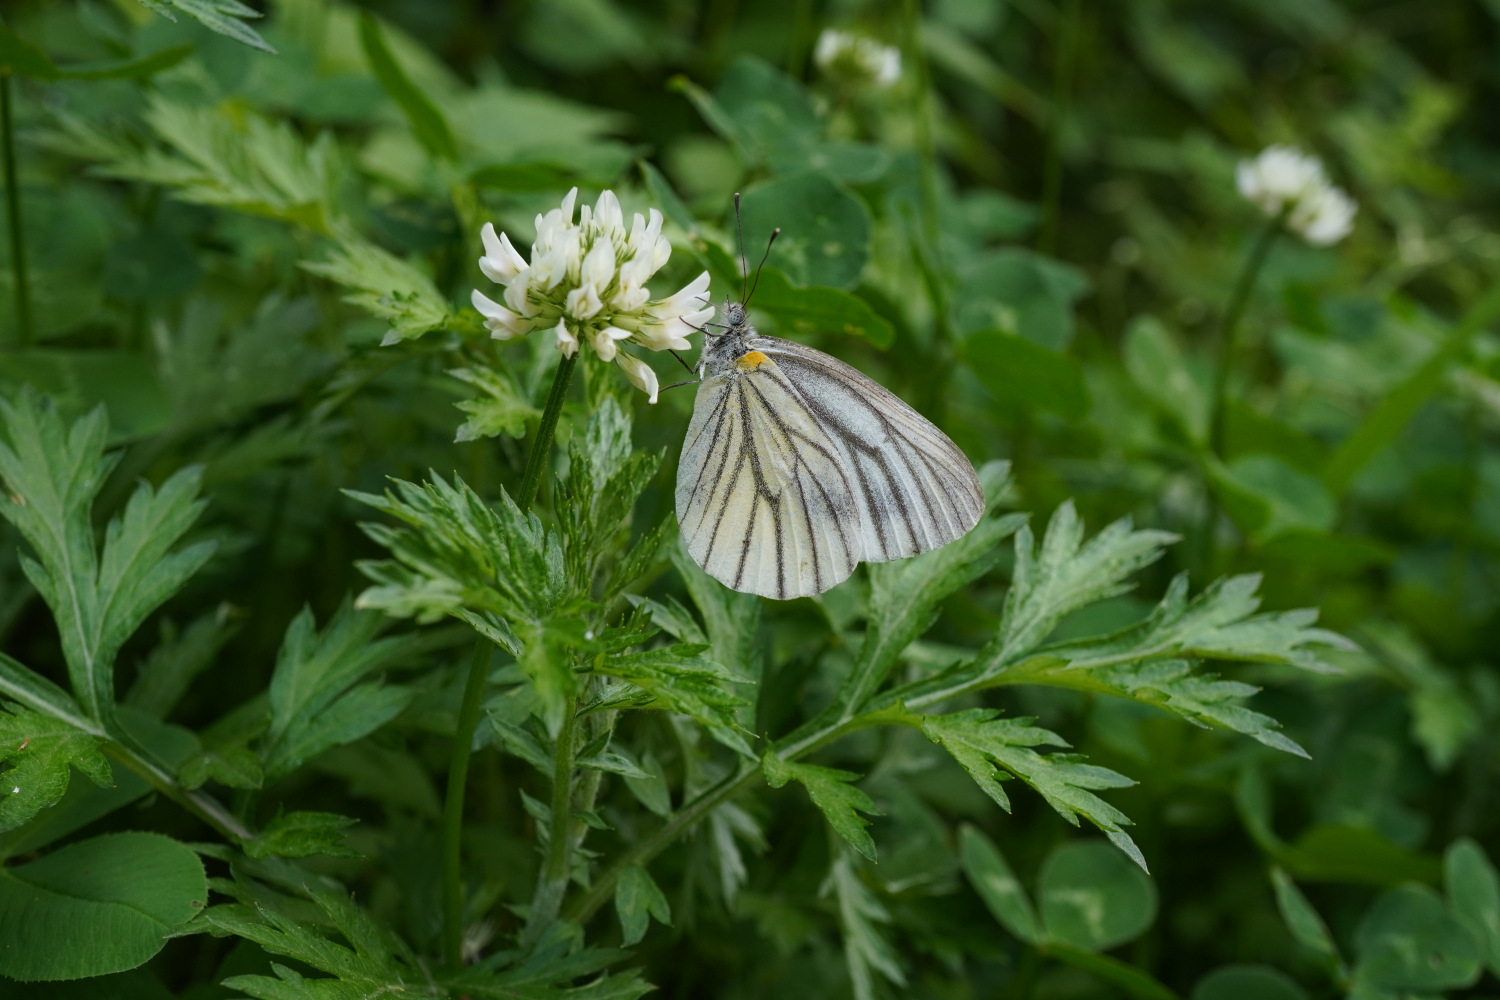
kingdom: Animalia
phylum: Arthropoda
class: Insecta
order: Lepidoptera
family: Pieridae
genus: Pieris
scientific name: Pieris melete
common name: Asian green-veined white
